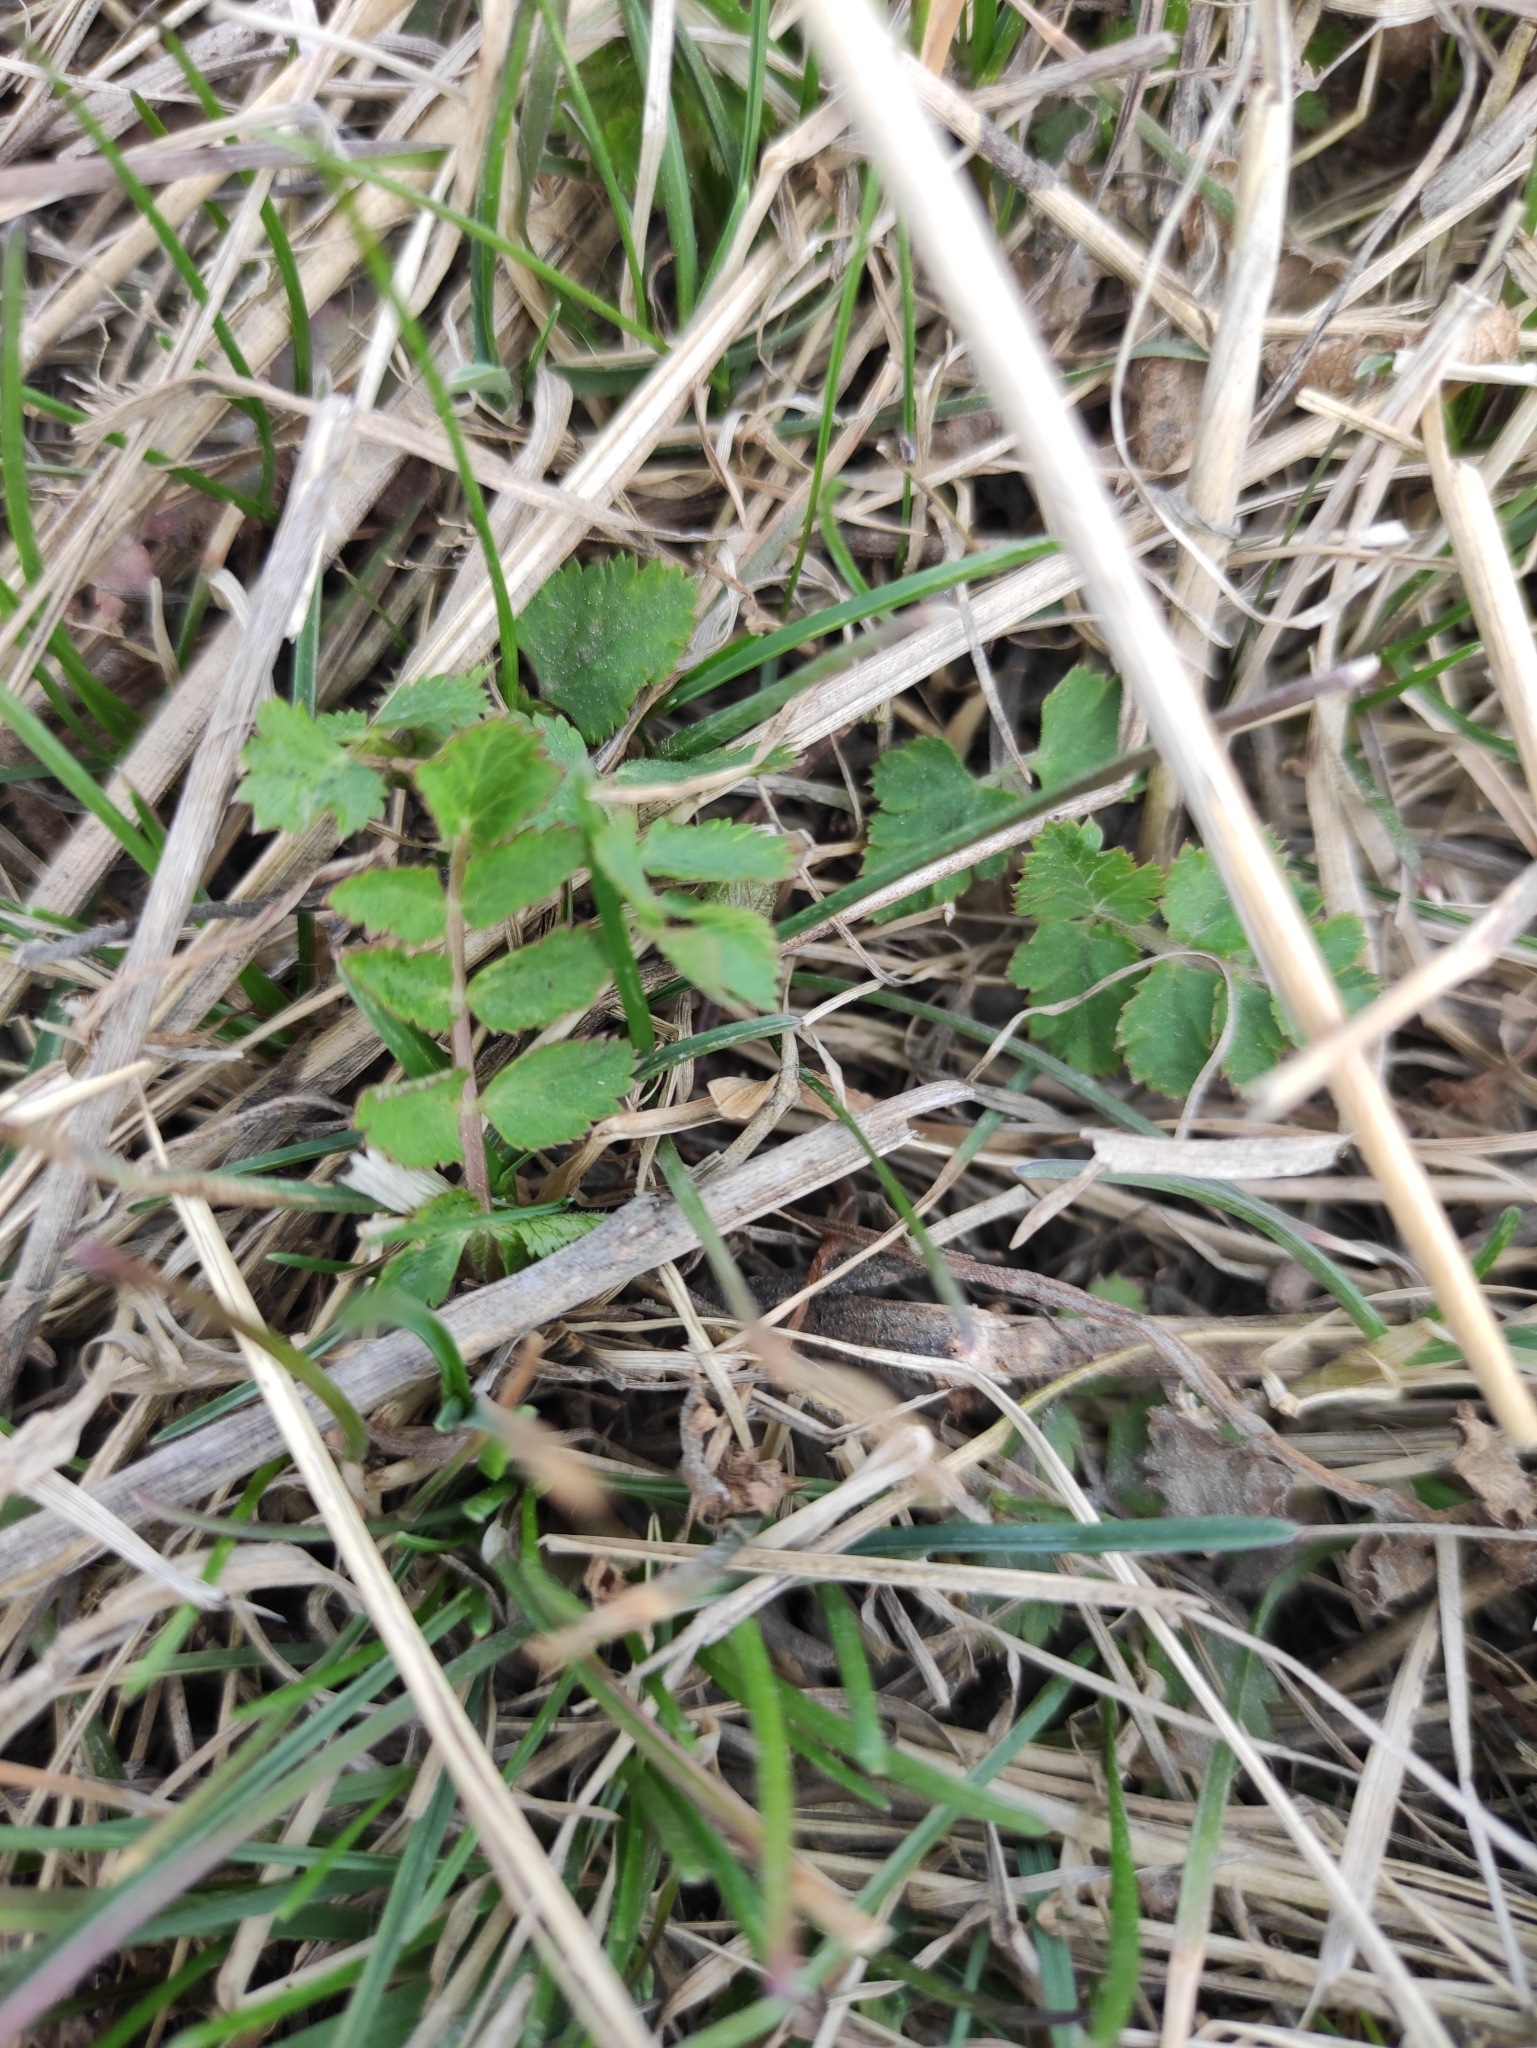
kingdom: Plantae
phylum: Tracheophyta
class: Magnoliopsida
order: Apiales
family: Apiaceae
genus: Pimpinella
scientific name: Pimpinella saxifraga
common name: Burnet-saxifrage
